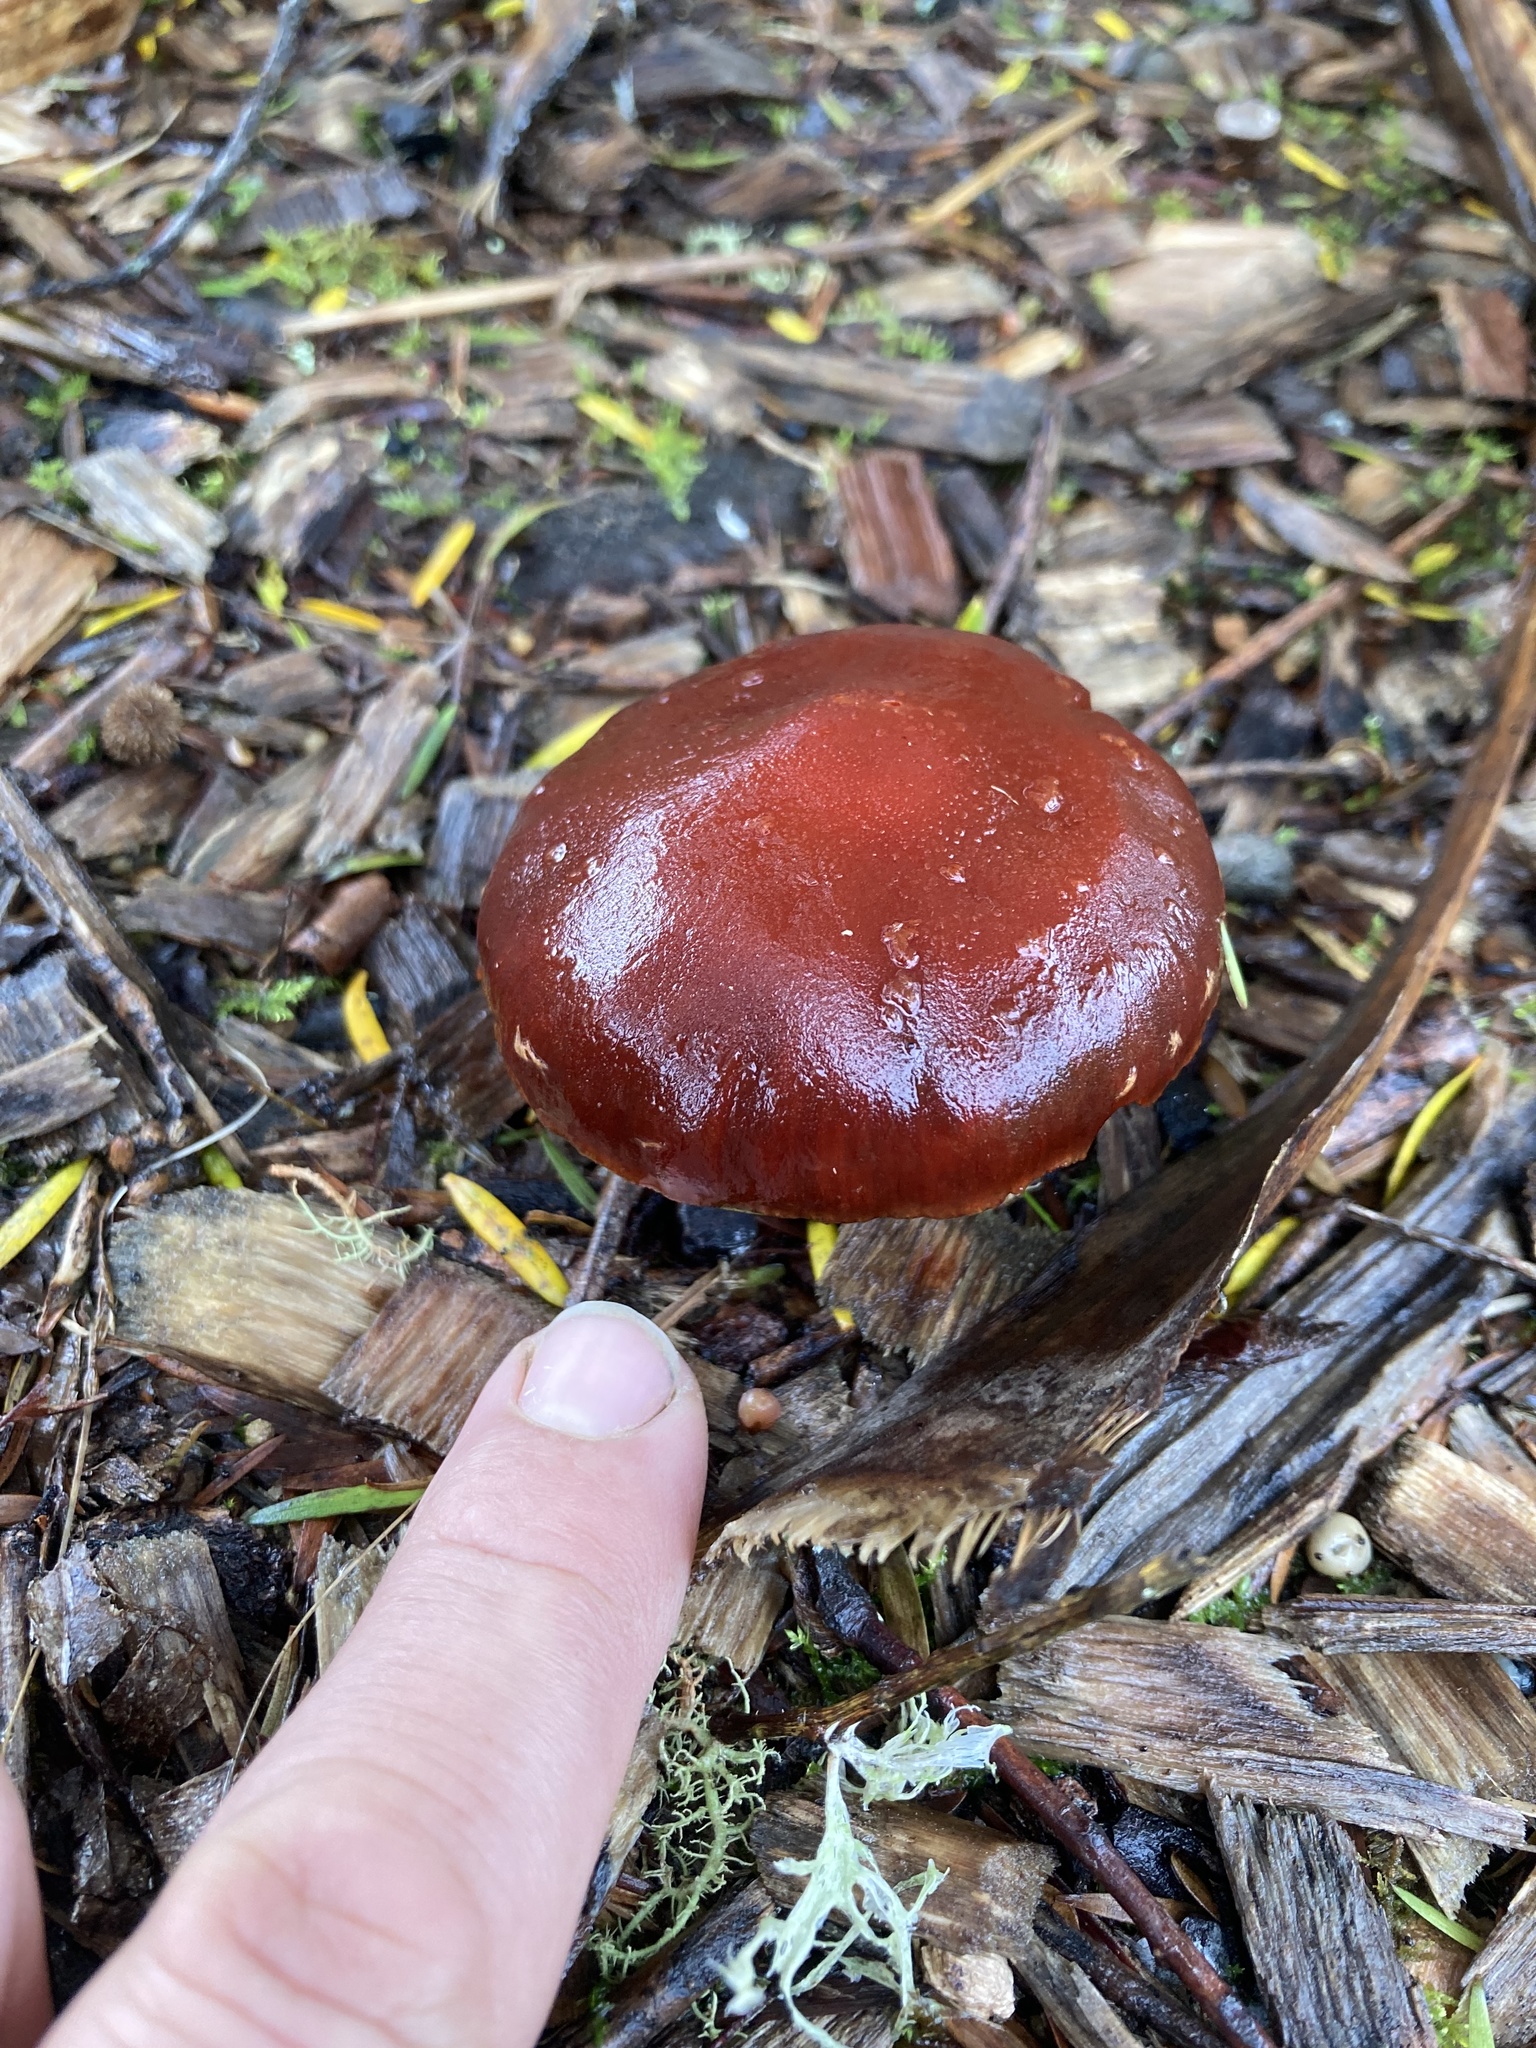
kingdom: Fungi
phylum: Basidiomycota
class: Agaricomycetes
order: Agaricales
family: Strophariaceae
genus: Leratiomyces
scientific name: Leratiomyces ceres
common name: Redlead roundhead
